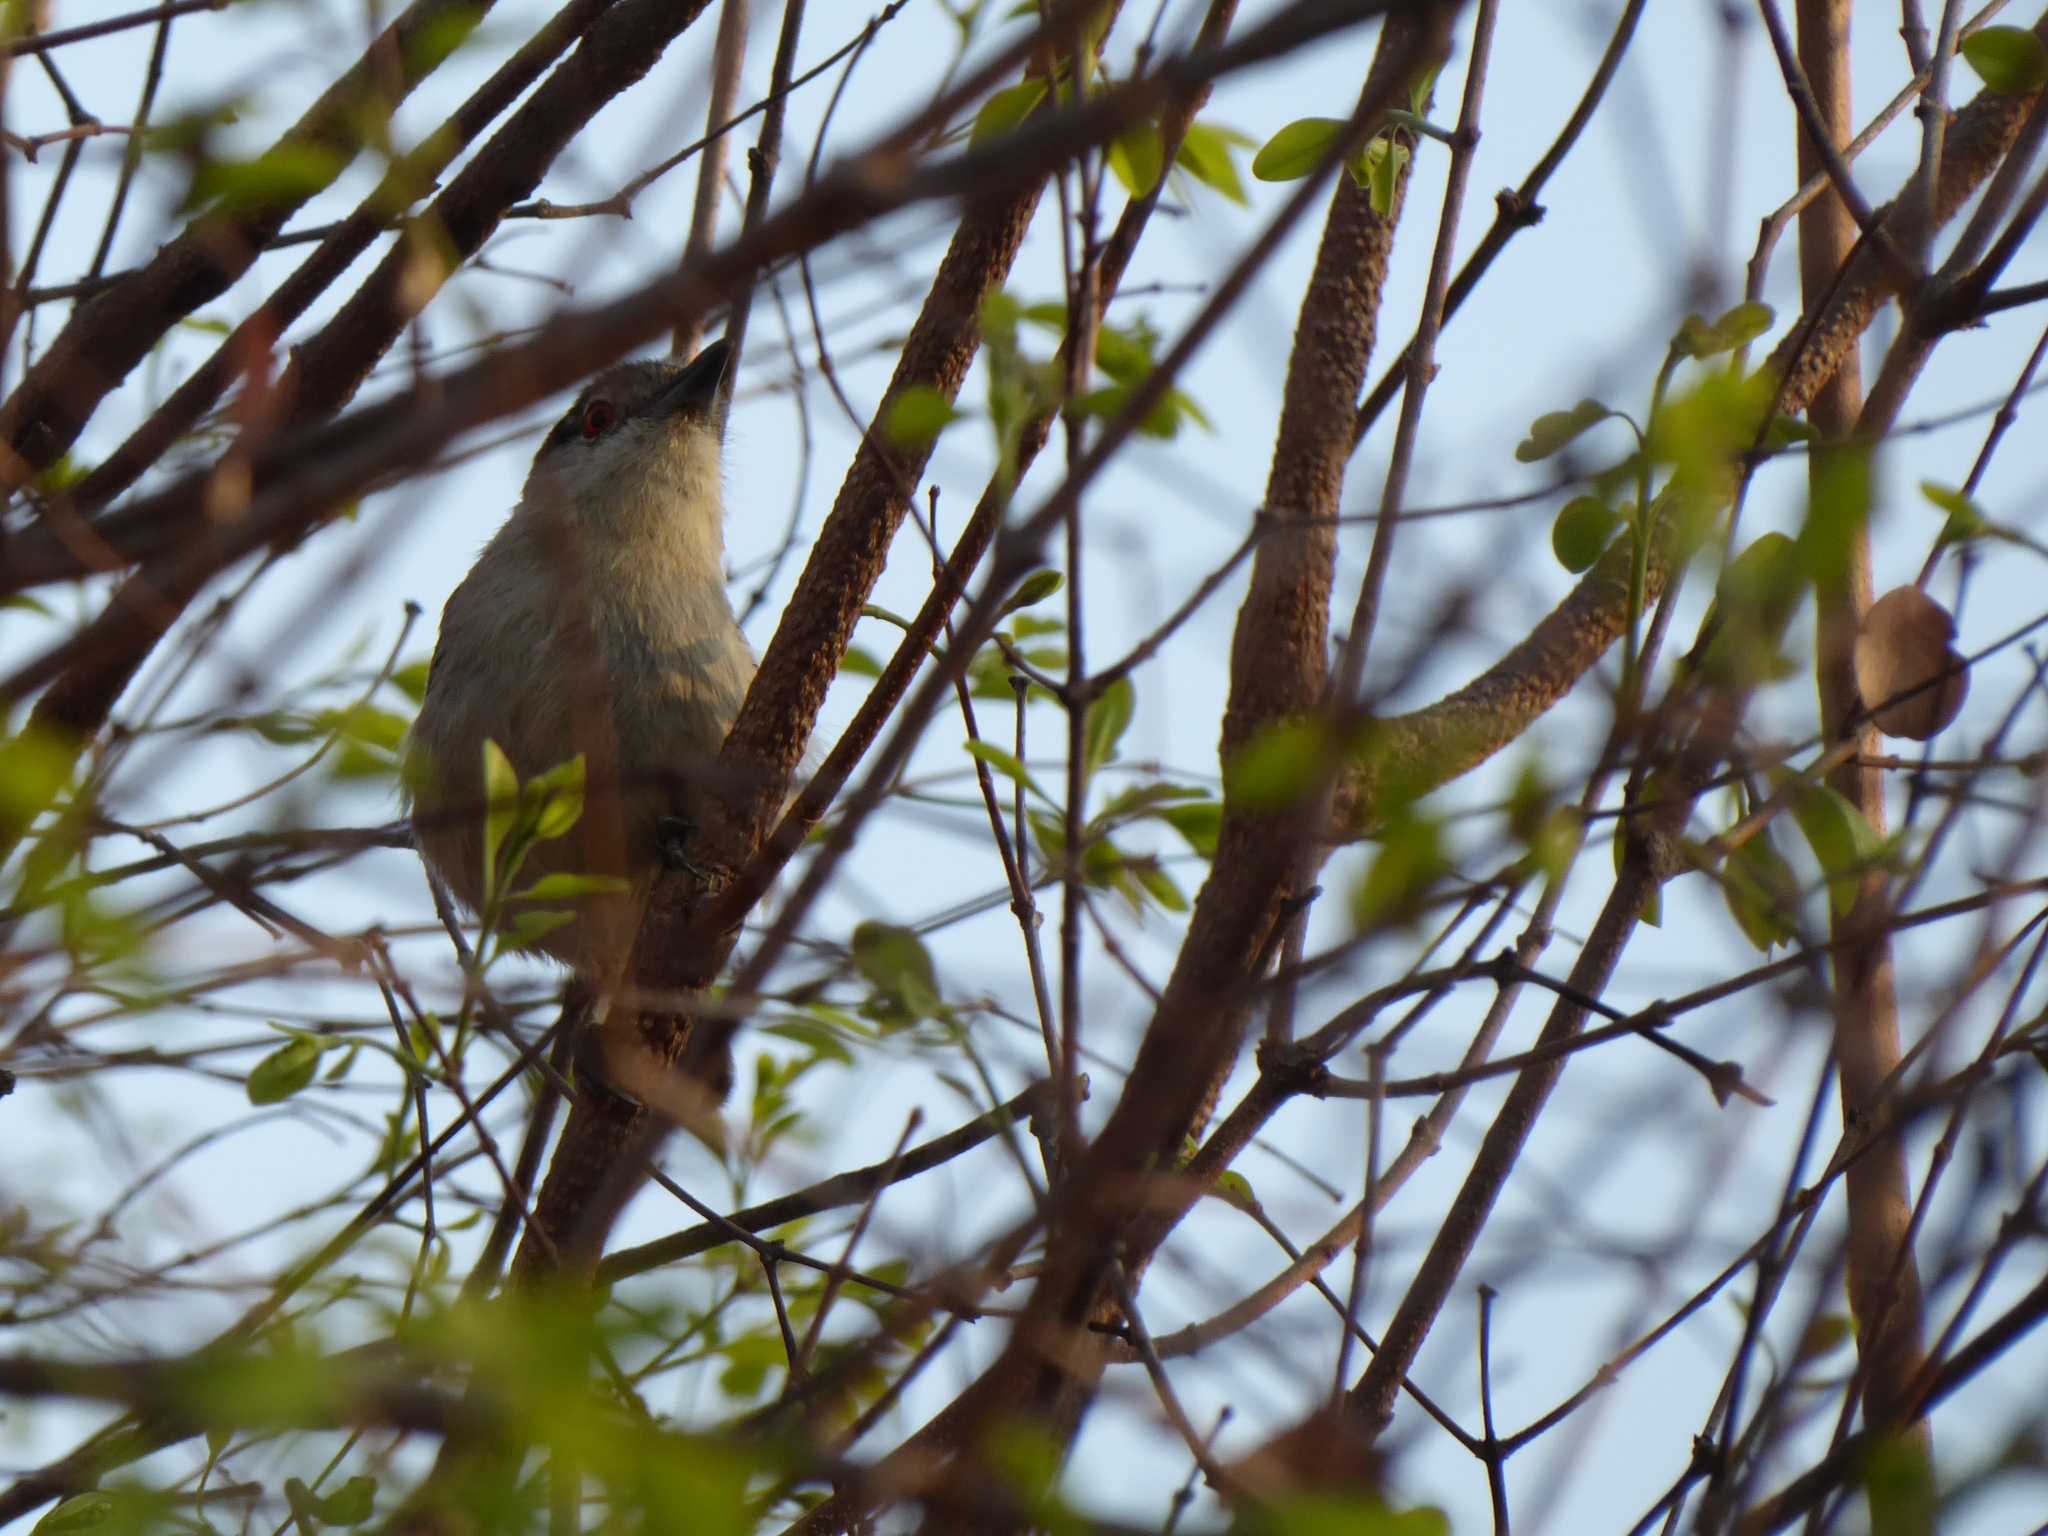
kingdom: Animalia
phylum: Chordata
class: Aves
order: Passeriformes
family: Malaconotidae
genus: Dryoscopus
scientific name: Dryoscopus cubla
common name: Black-backed puffback
